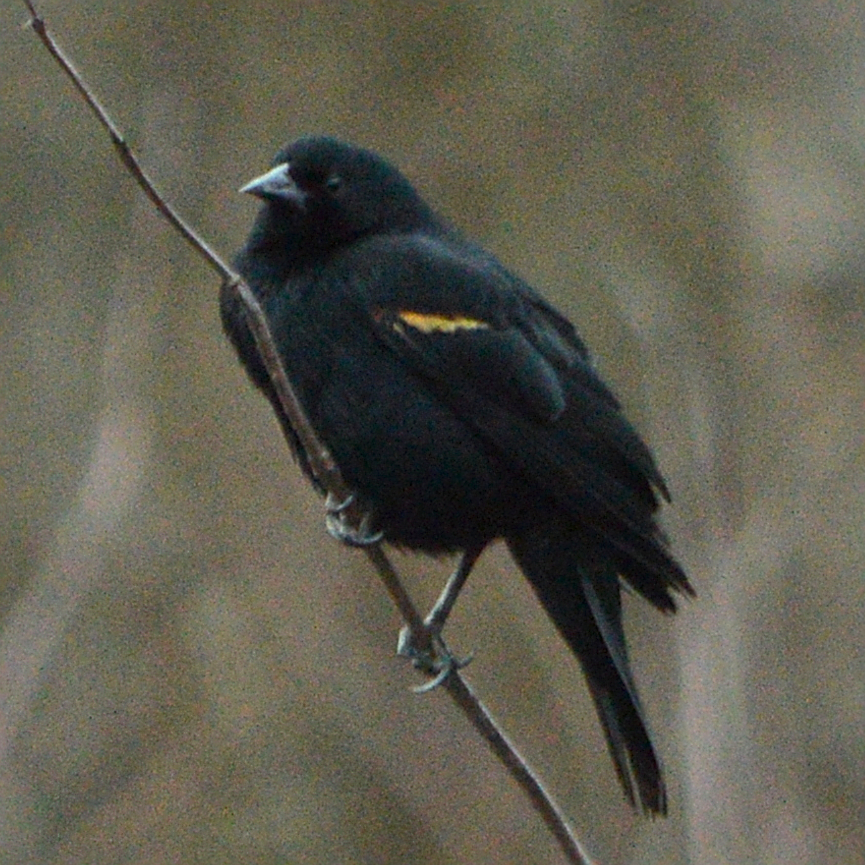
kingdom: Animalia
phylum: Chordata
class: Aves
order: Passeriformes
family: Icteridae
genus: Agelaius
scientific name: Agelaius phoeniceus
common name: Red-winged blackbird
